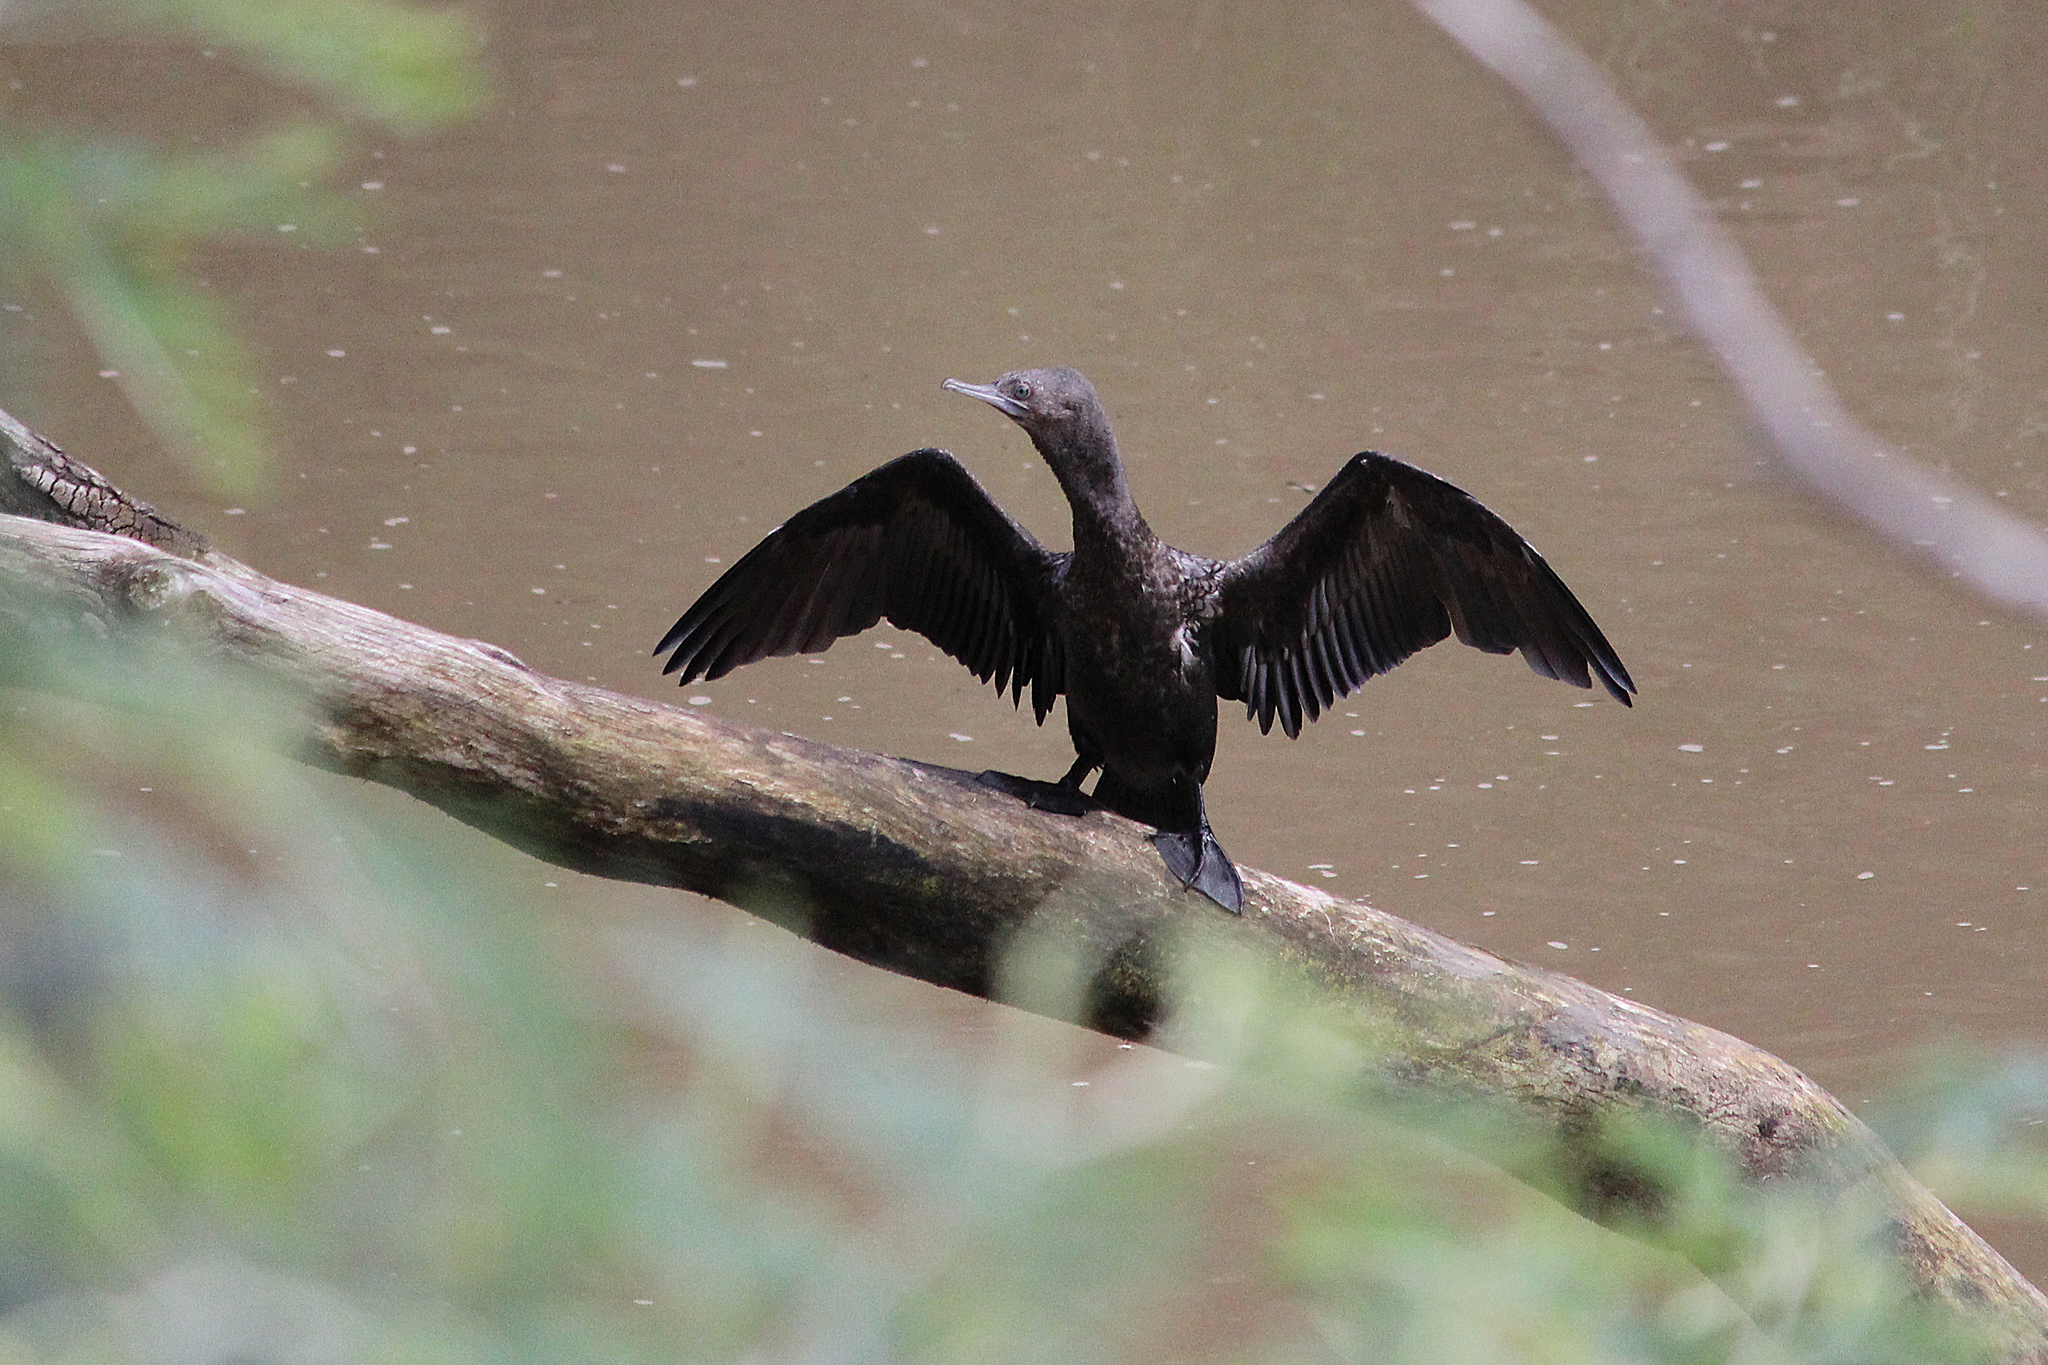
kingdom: Animalia
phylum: Chordata
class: Aves
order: Suliformes
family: Phalacrocoracidae
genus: Phalacrocorax
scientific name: Phalacrocorax sulcirostris
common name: Little black cormorant
